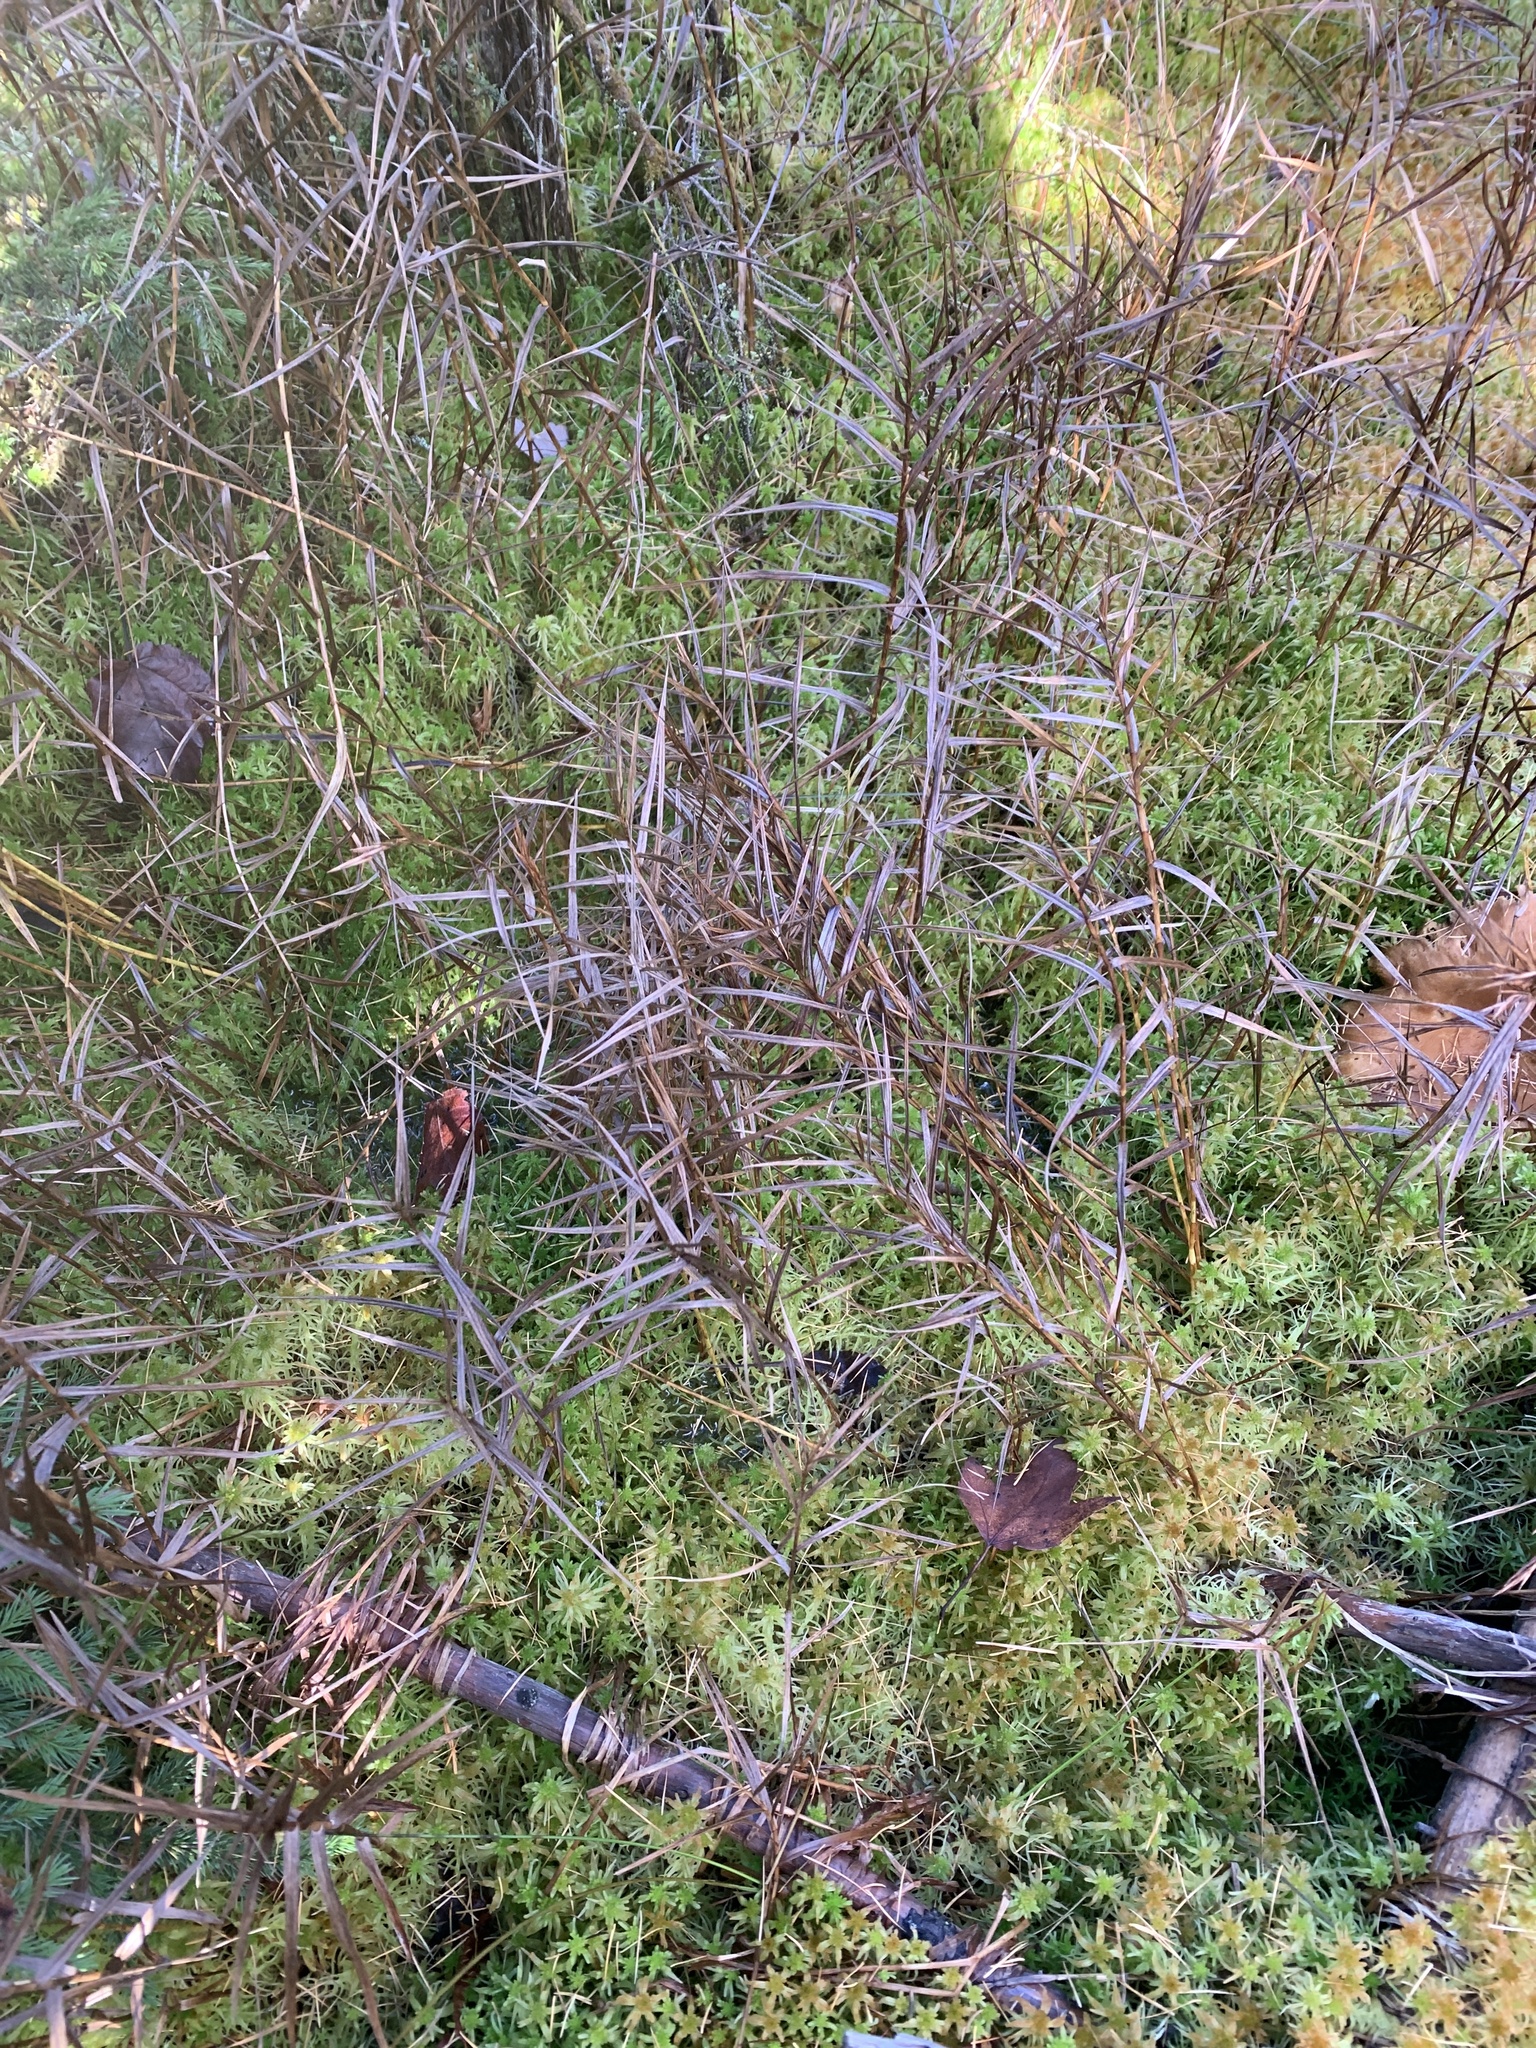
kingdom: Plantae
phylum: Tracheophyta
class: Liliopsida
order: Poales
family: Cyperaceae
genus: Dulichium
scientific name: Dulichium arundinaceum
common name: Three-way sedge
